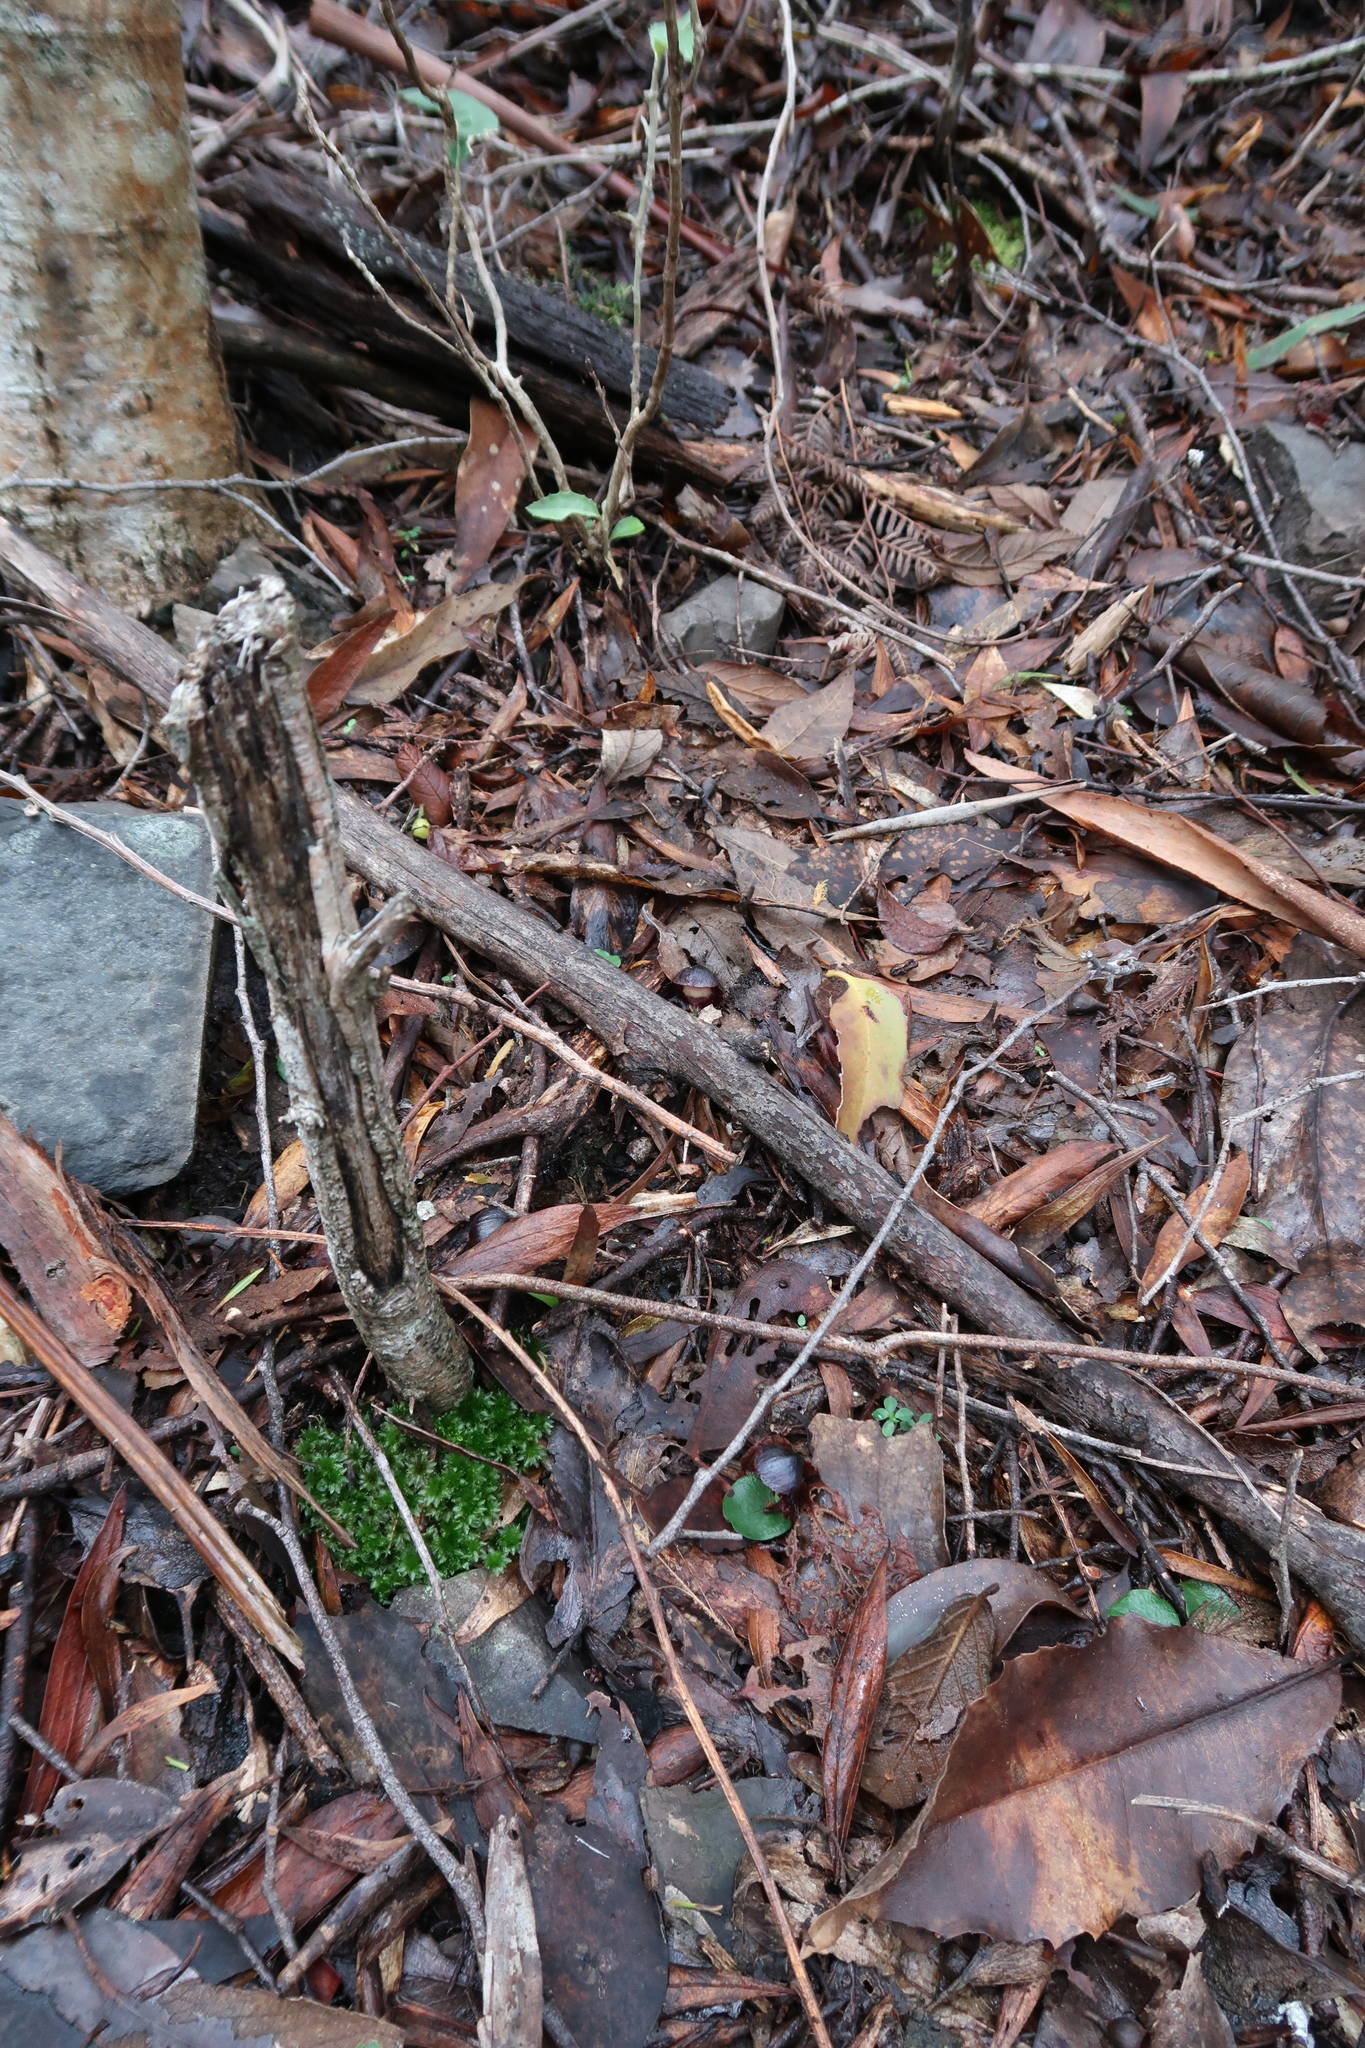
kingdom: Plantae
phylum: Tracheophyta
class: Liliopsida
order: Asparagales
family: Orchidaceae
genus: Corybas
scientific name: Corybas diemenicus
